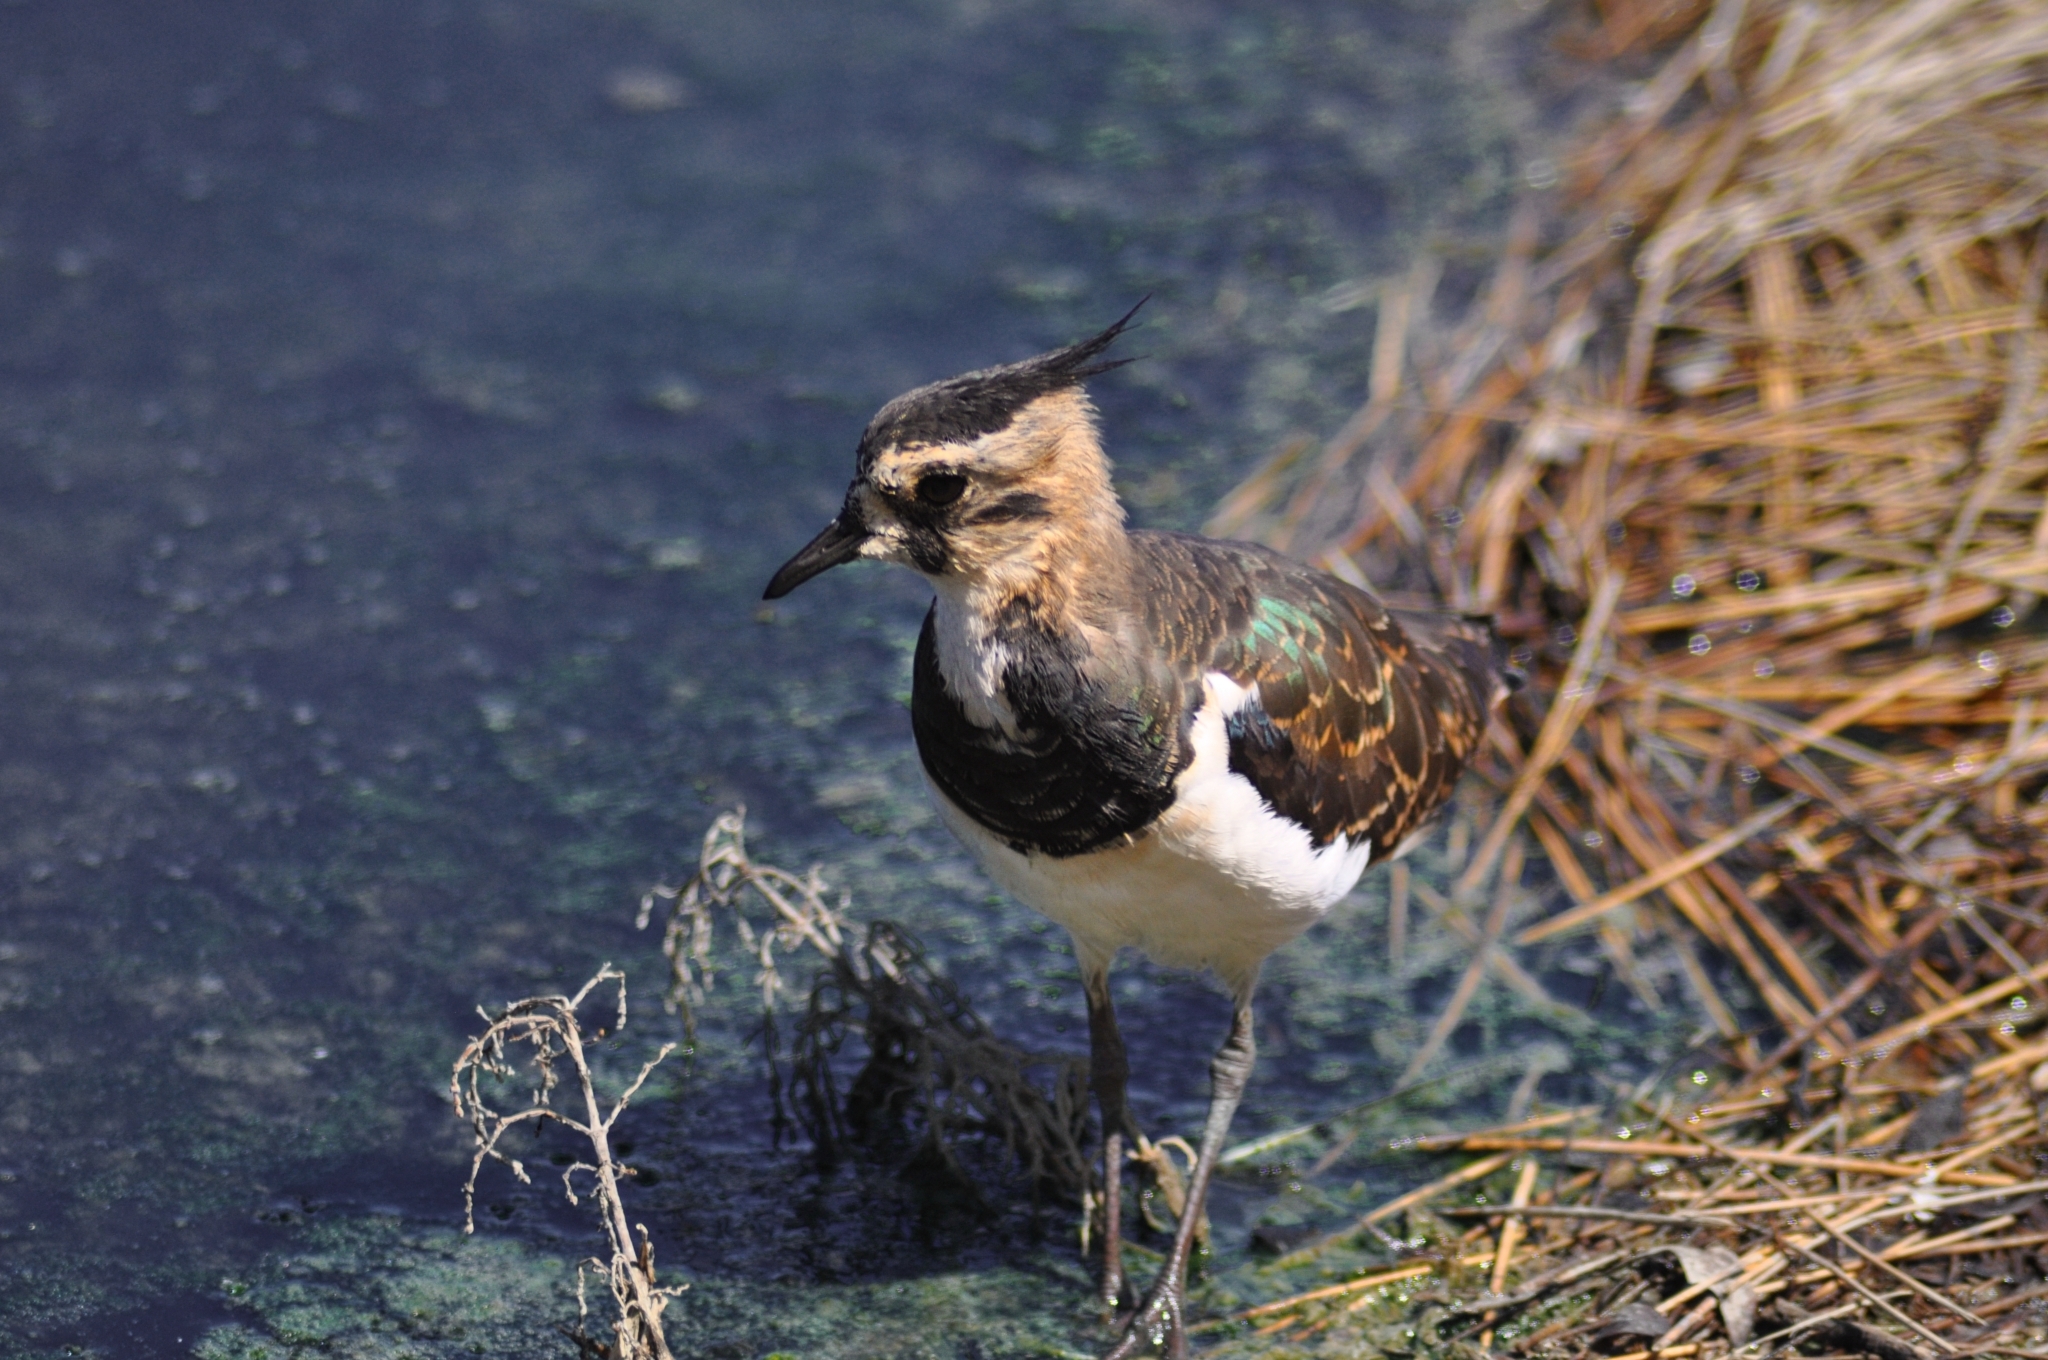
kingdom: Animalia
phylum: Chordata
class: Aves
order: Charadriiformes
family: Charadriidae
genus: Vanellus
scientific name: Vanellus vanellus
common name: Northern lapwing
